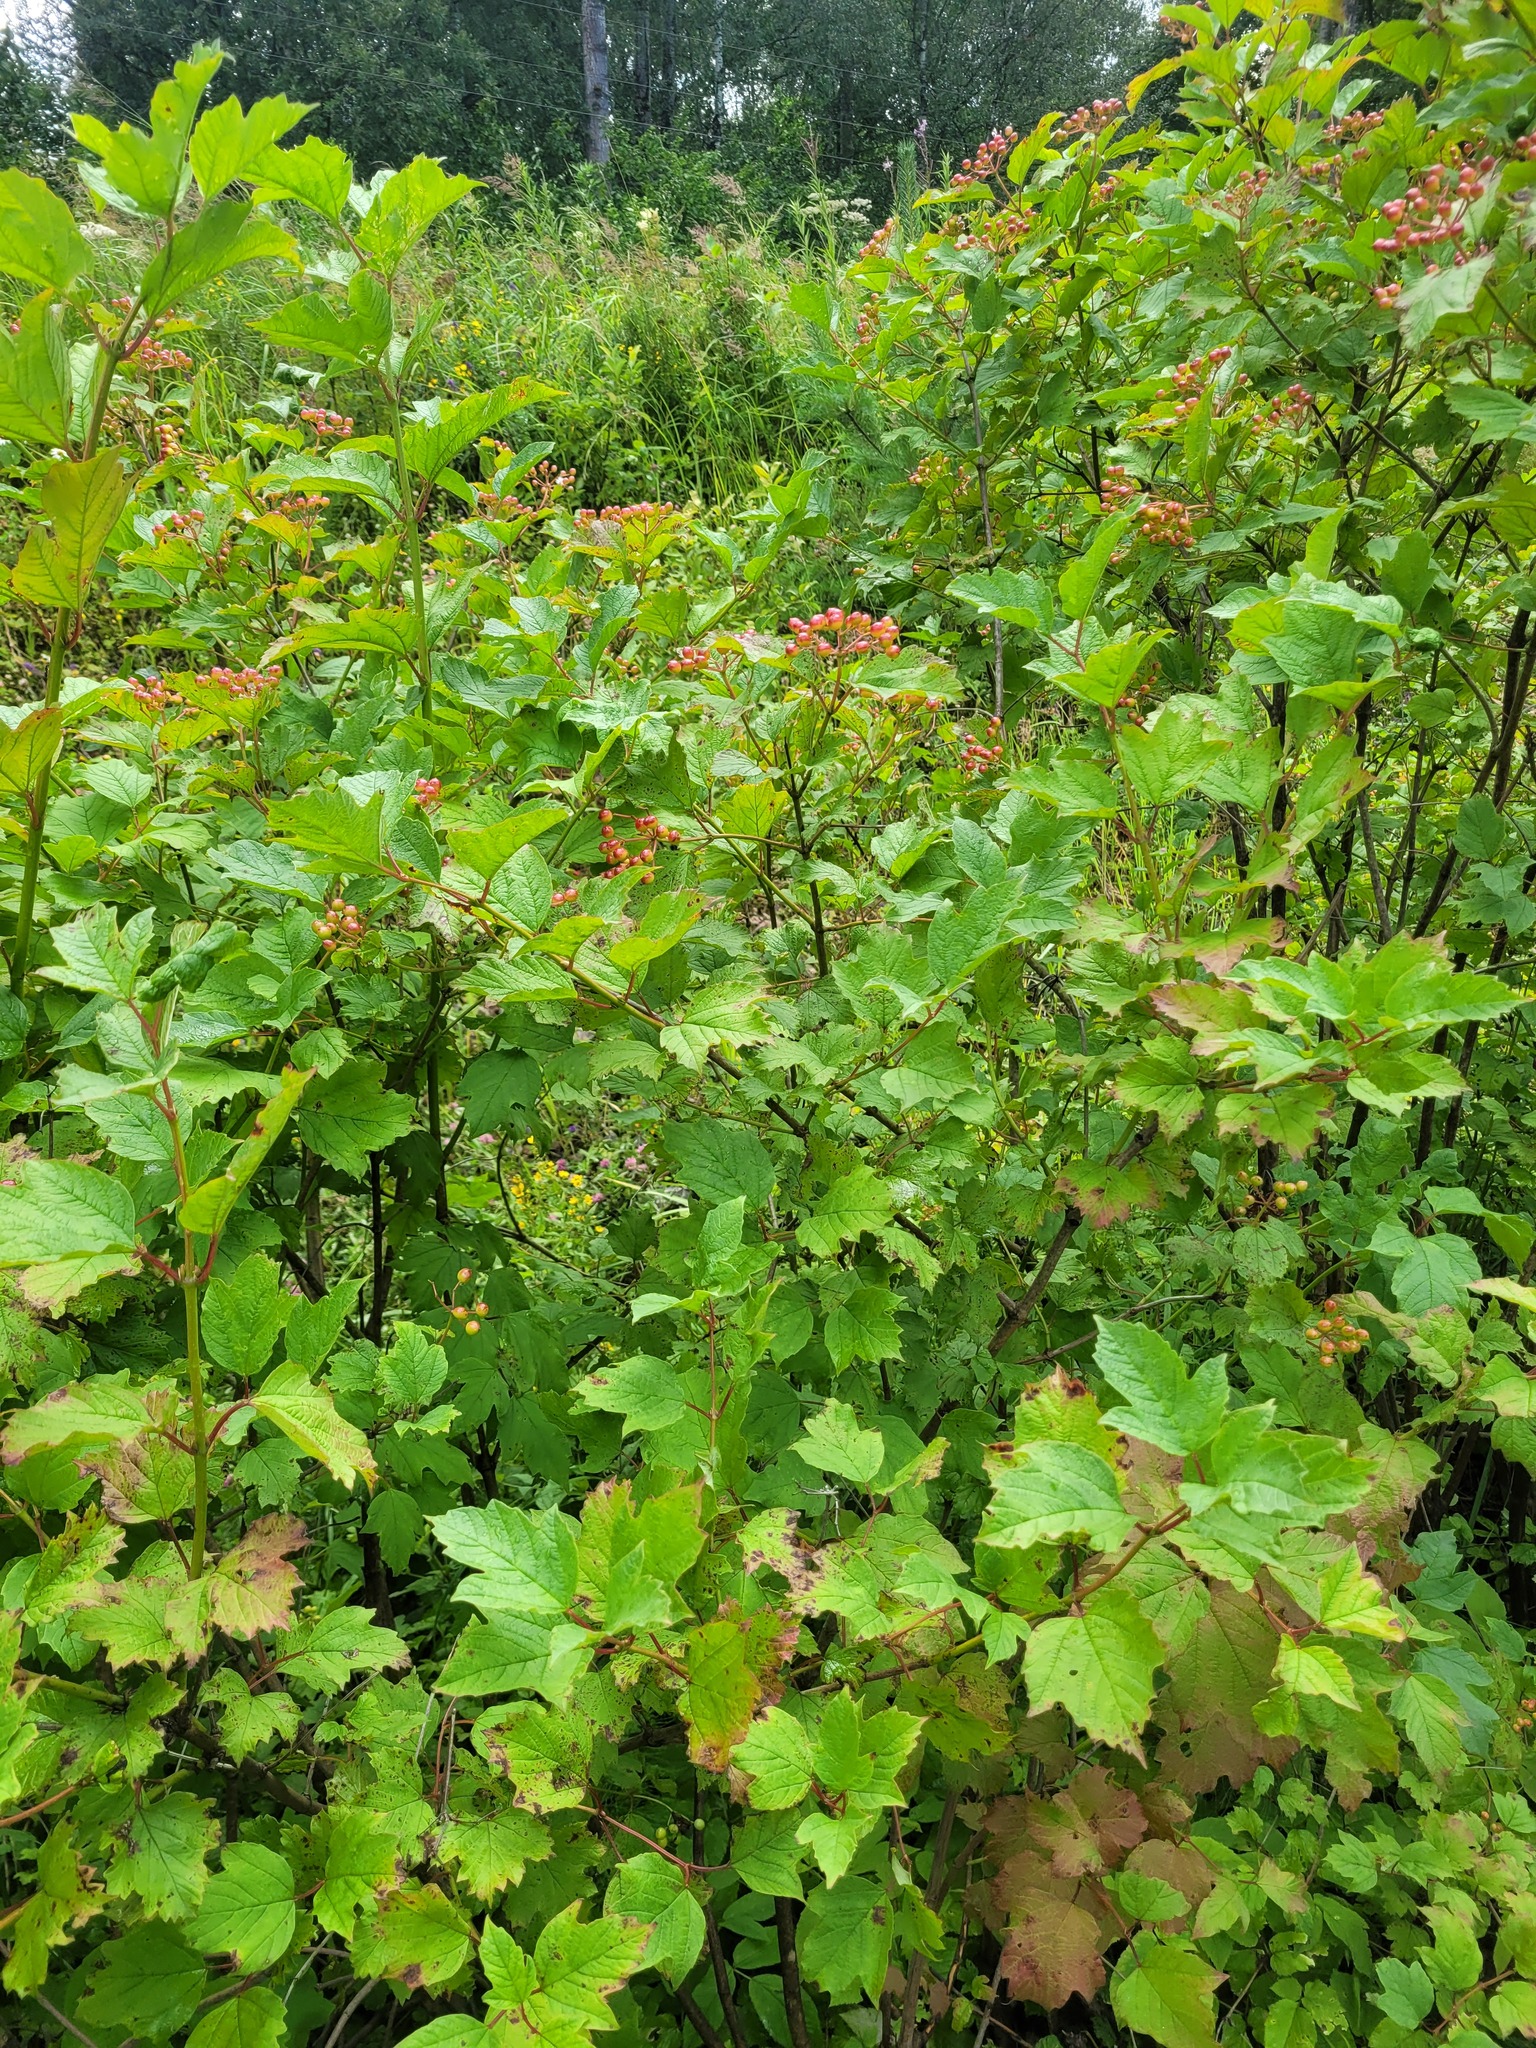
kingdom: Plantae
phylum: Tracheophyta
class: Magnoliopsida
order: Dipsacales
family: Viburnaceae
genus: Viburnum
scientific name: Viburnum opulus
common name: Guelder-rose
